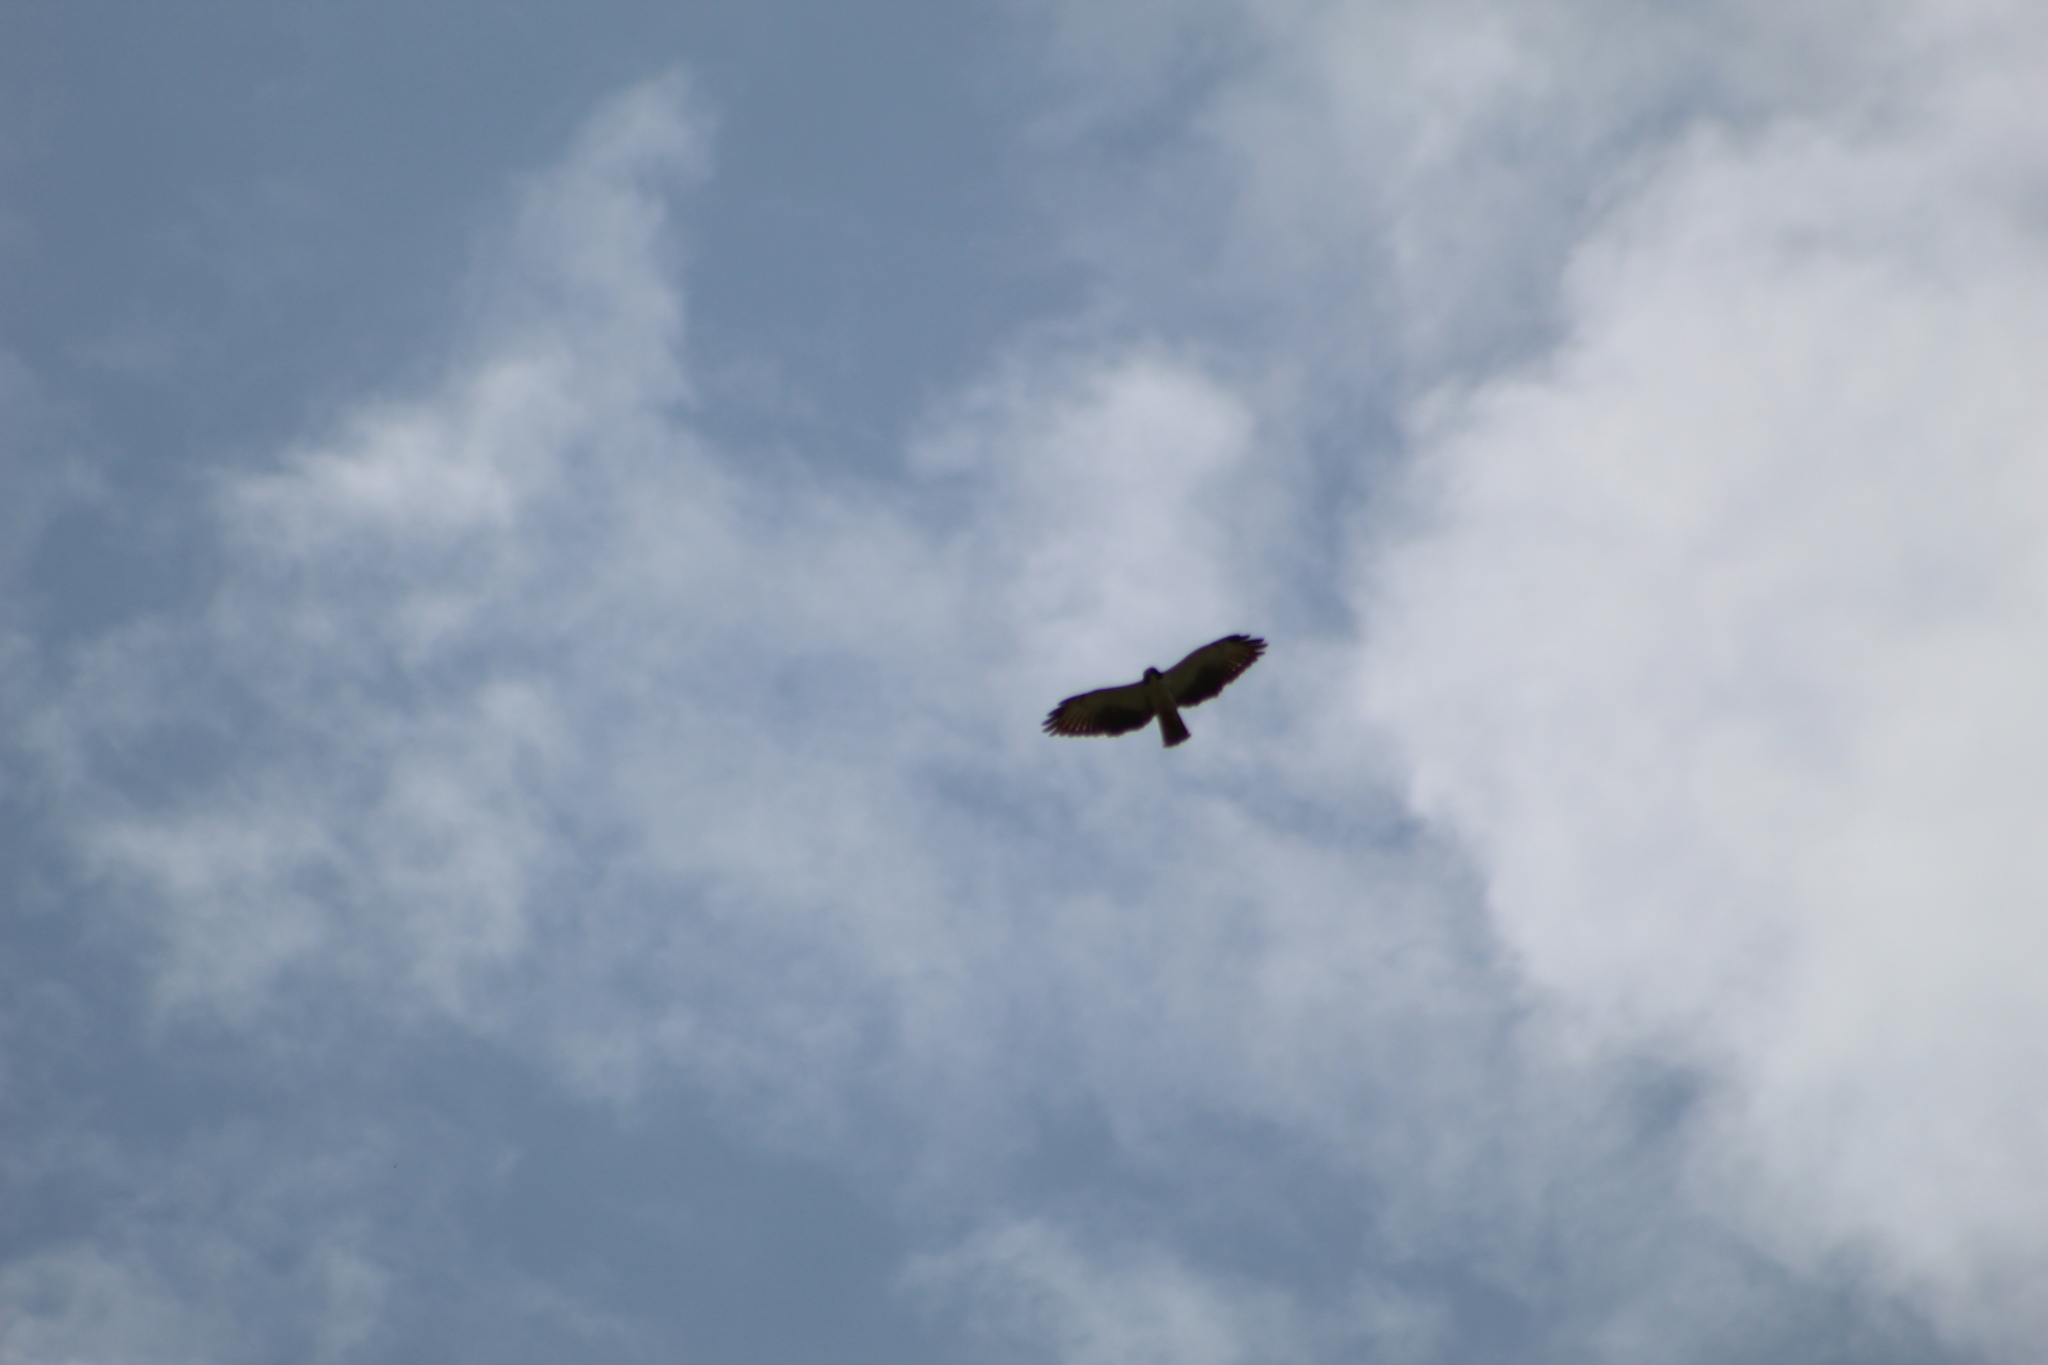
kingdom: Animalia
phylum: Chordata
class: Aves
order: Accipitriformes
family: Accipitridae
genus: Buteo
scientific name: Buteo brachyurus
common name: Short-tailed hawk
